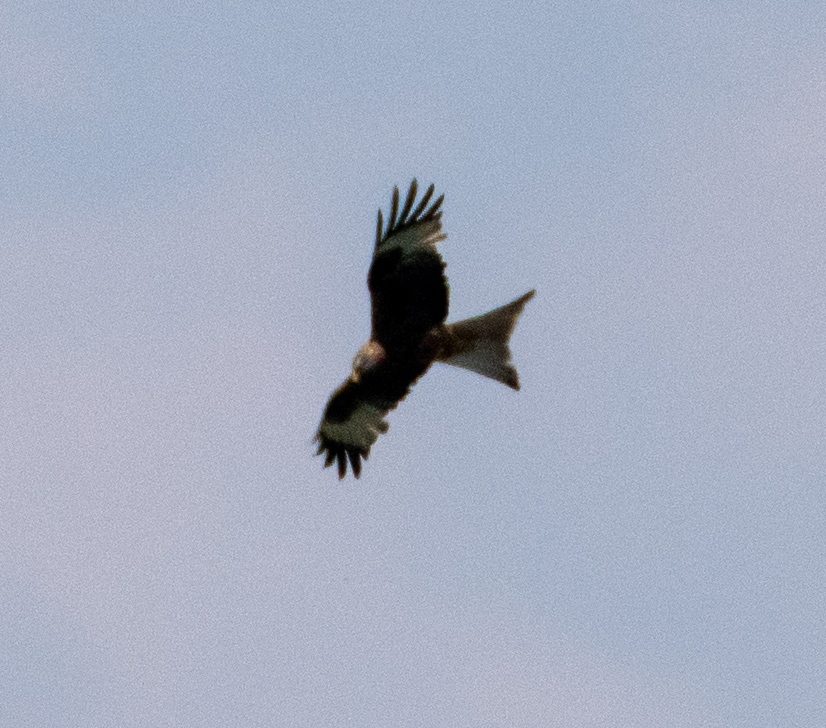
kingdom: Animalia
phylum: Chordata
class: Aves
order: Accipitriformes
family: Accipitridae
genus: Milvus
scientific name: Milvus milvus
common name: Red kite
